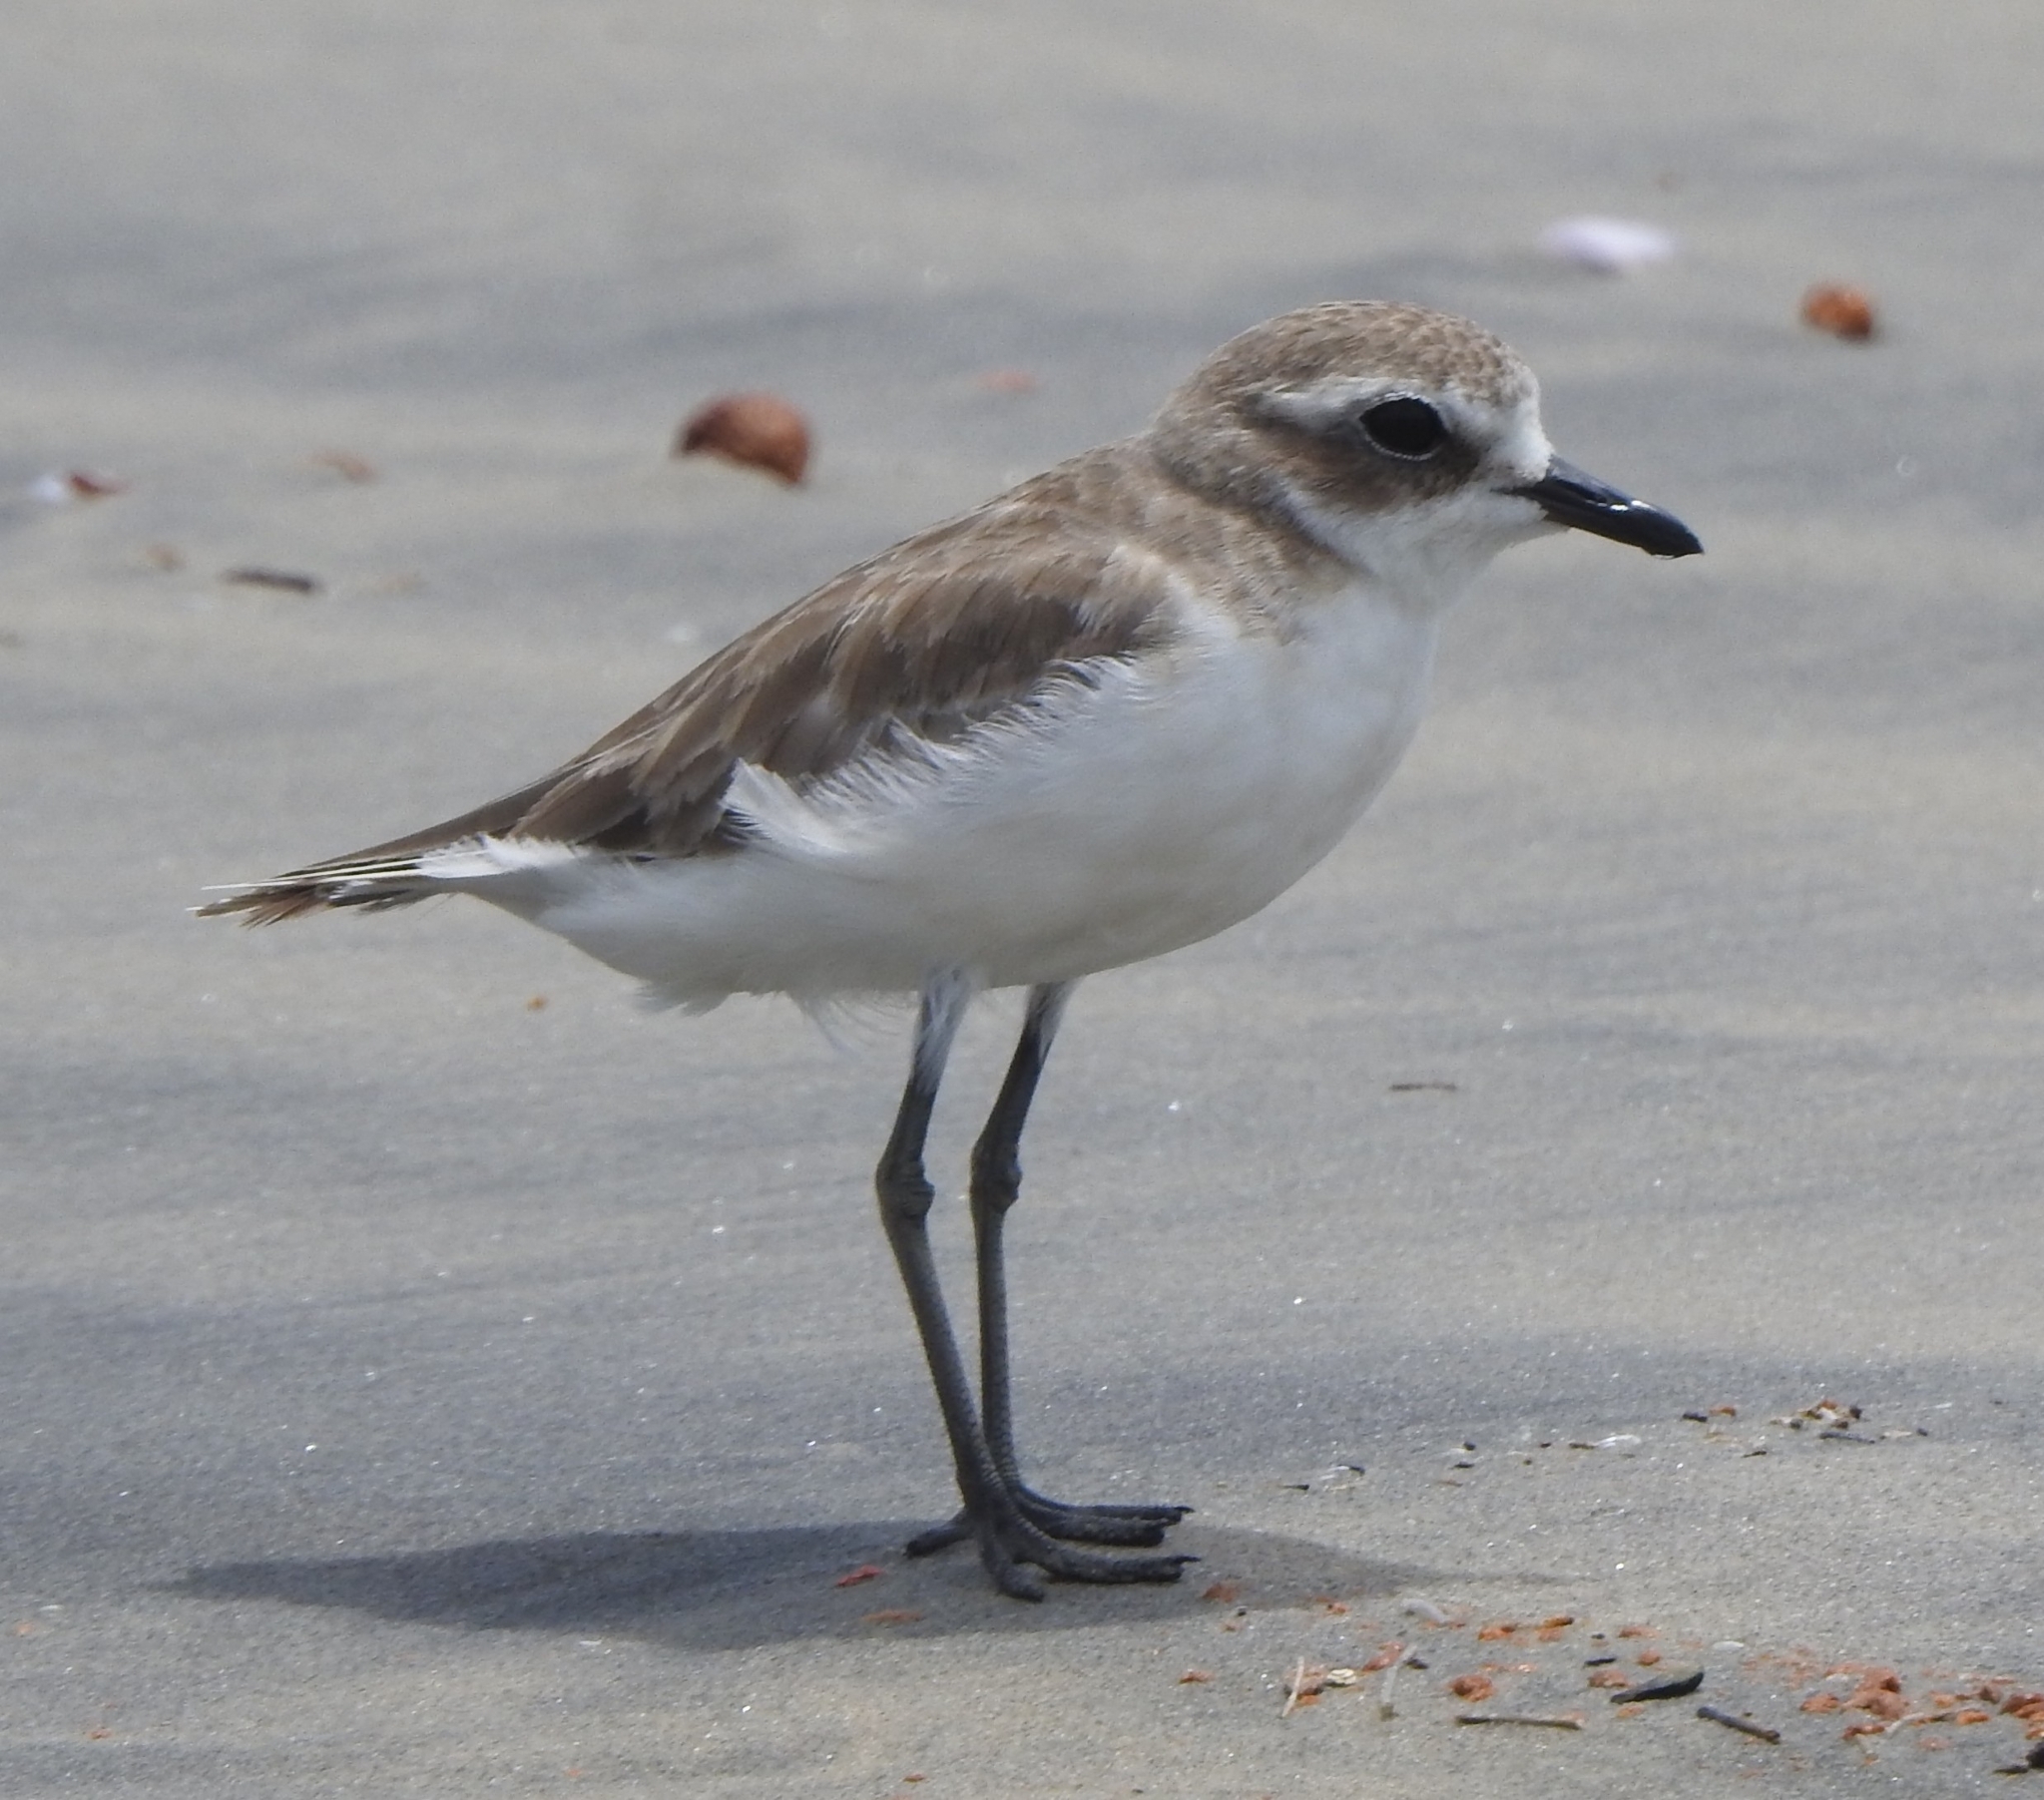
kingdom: Animalia
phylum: Chordata
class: Aves
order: Charadriiformes
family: Charadriidae
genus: Anarhynchus
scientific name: Anarhynchus
